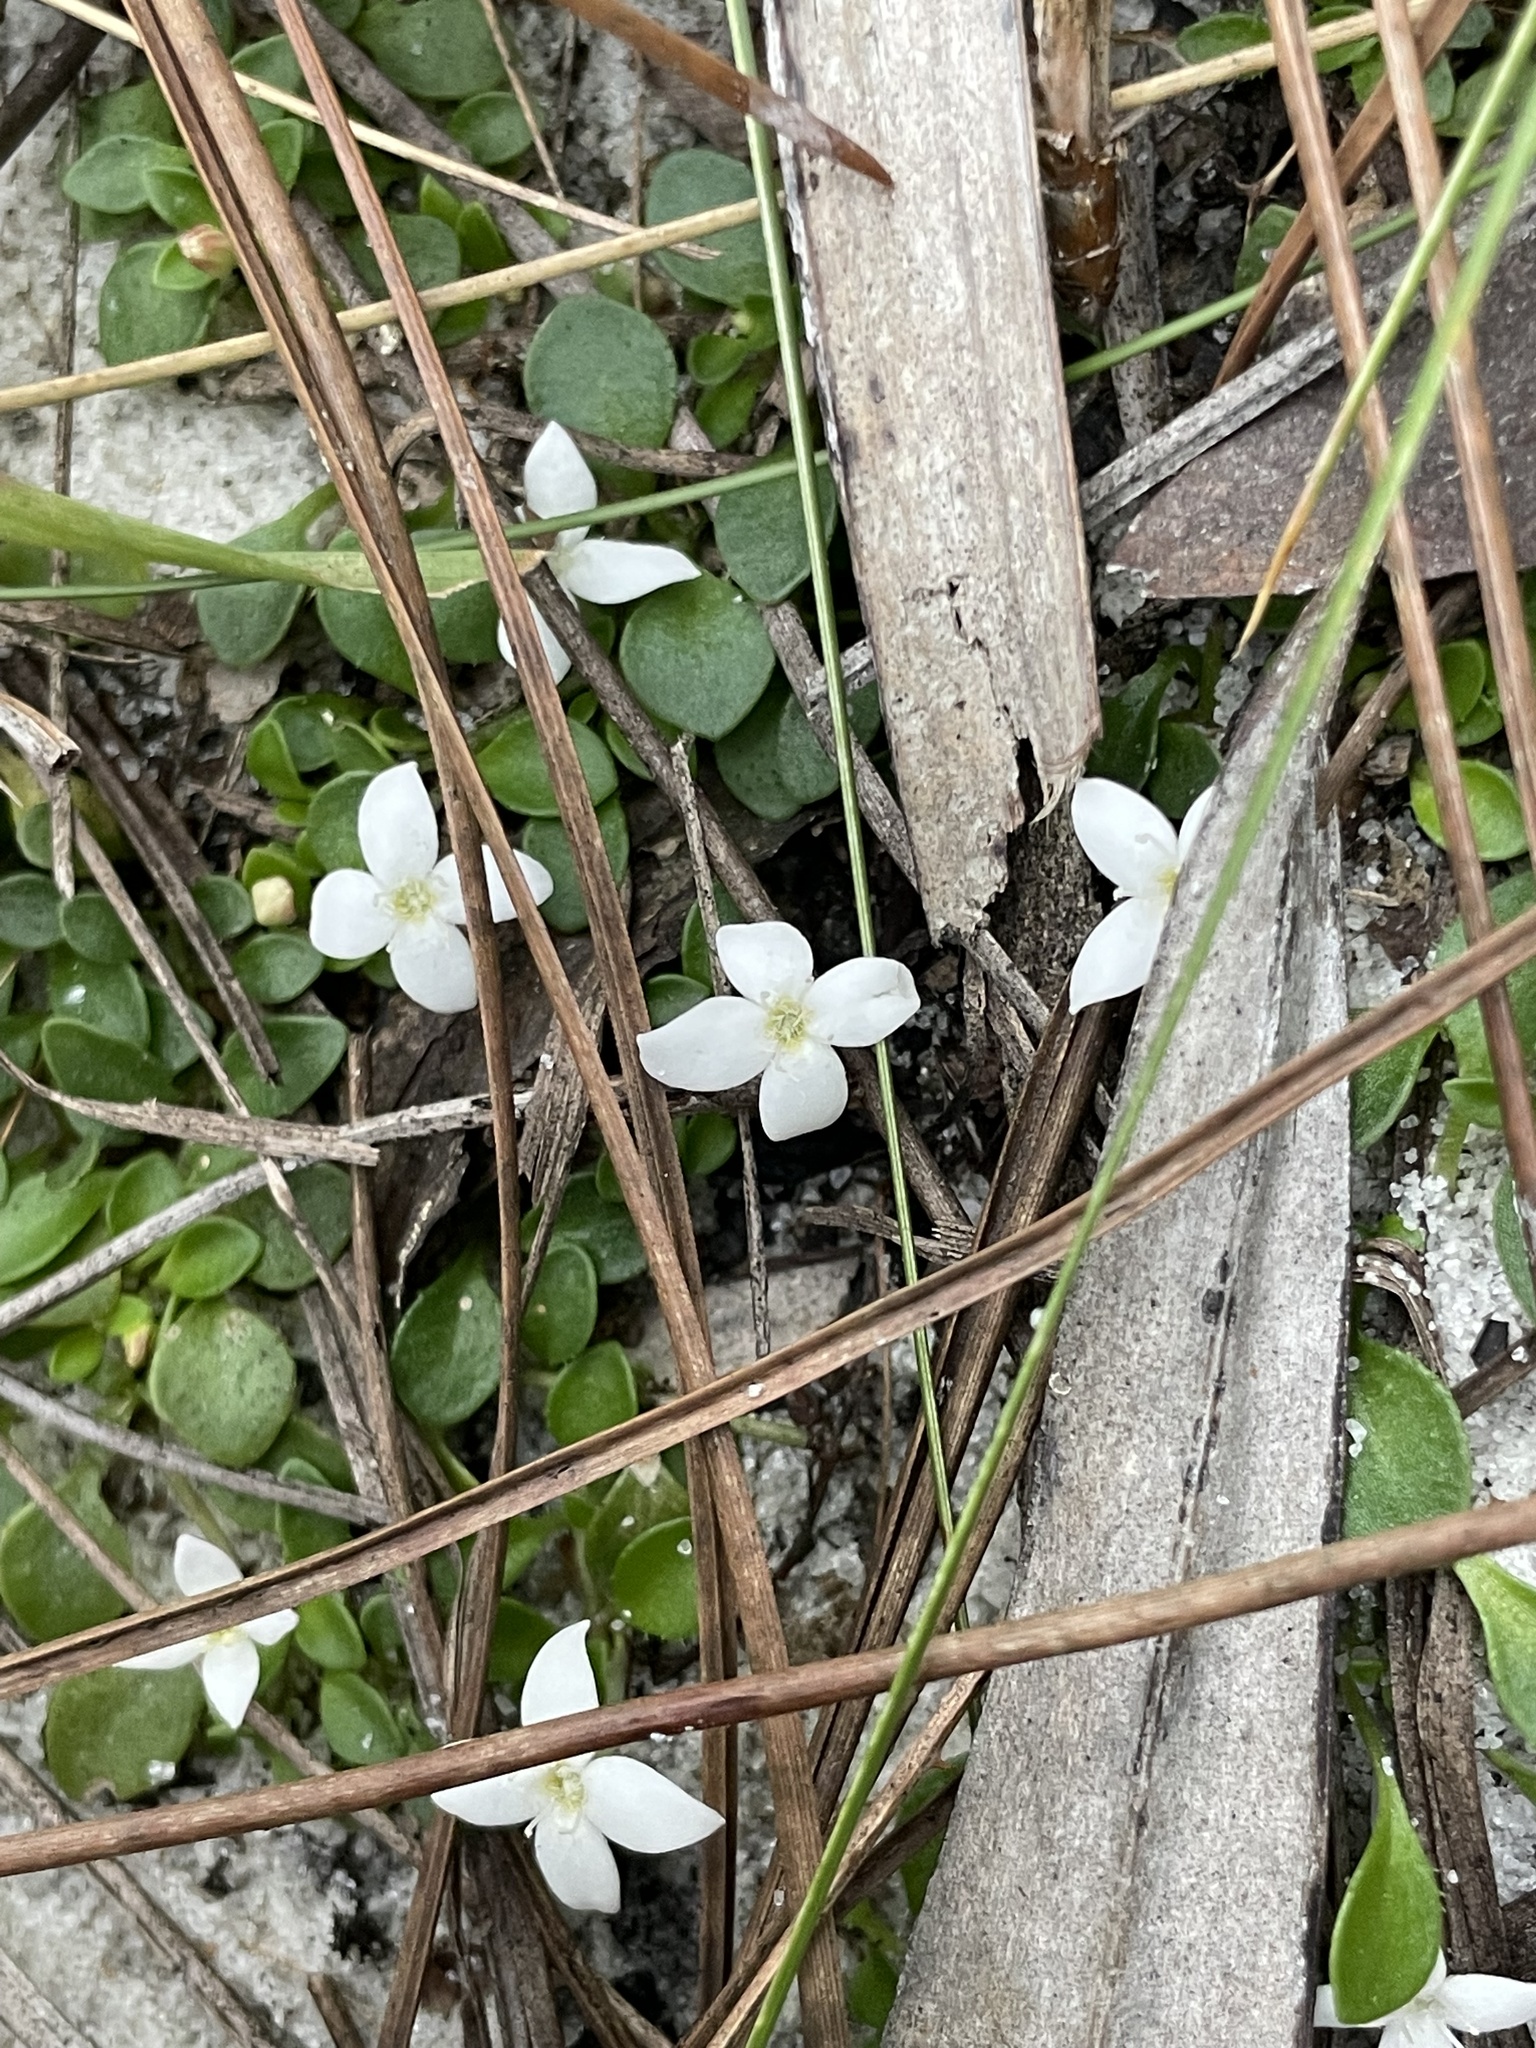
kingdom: Plantae
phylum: Tracheophyta
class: Magnoliopsida
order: Gentianales
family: Rubiaceae
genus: Houstonia
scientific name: Houstonia procumbens
